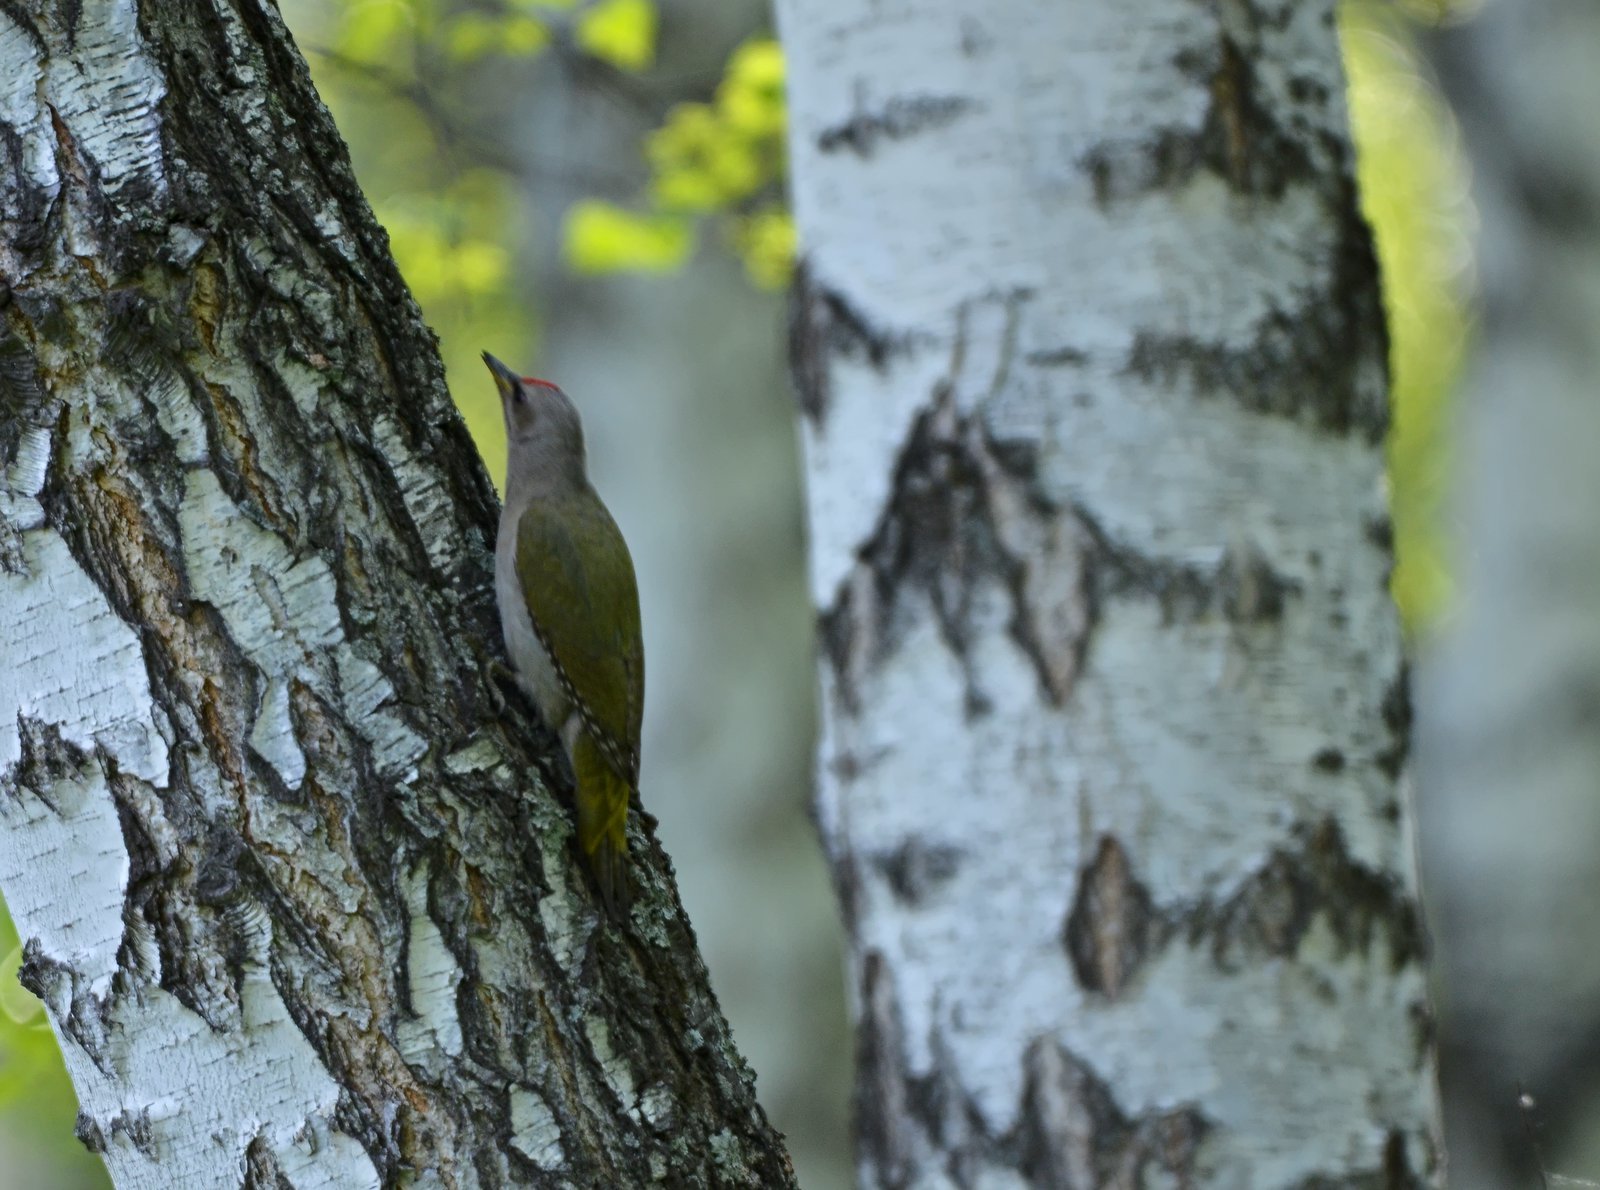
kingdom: Animalia
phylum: Chordata
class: Aves
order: Piciformes
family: Picidae
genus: Picus
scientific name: Picus canus
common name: Grey-headed woodpecker
